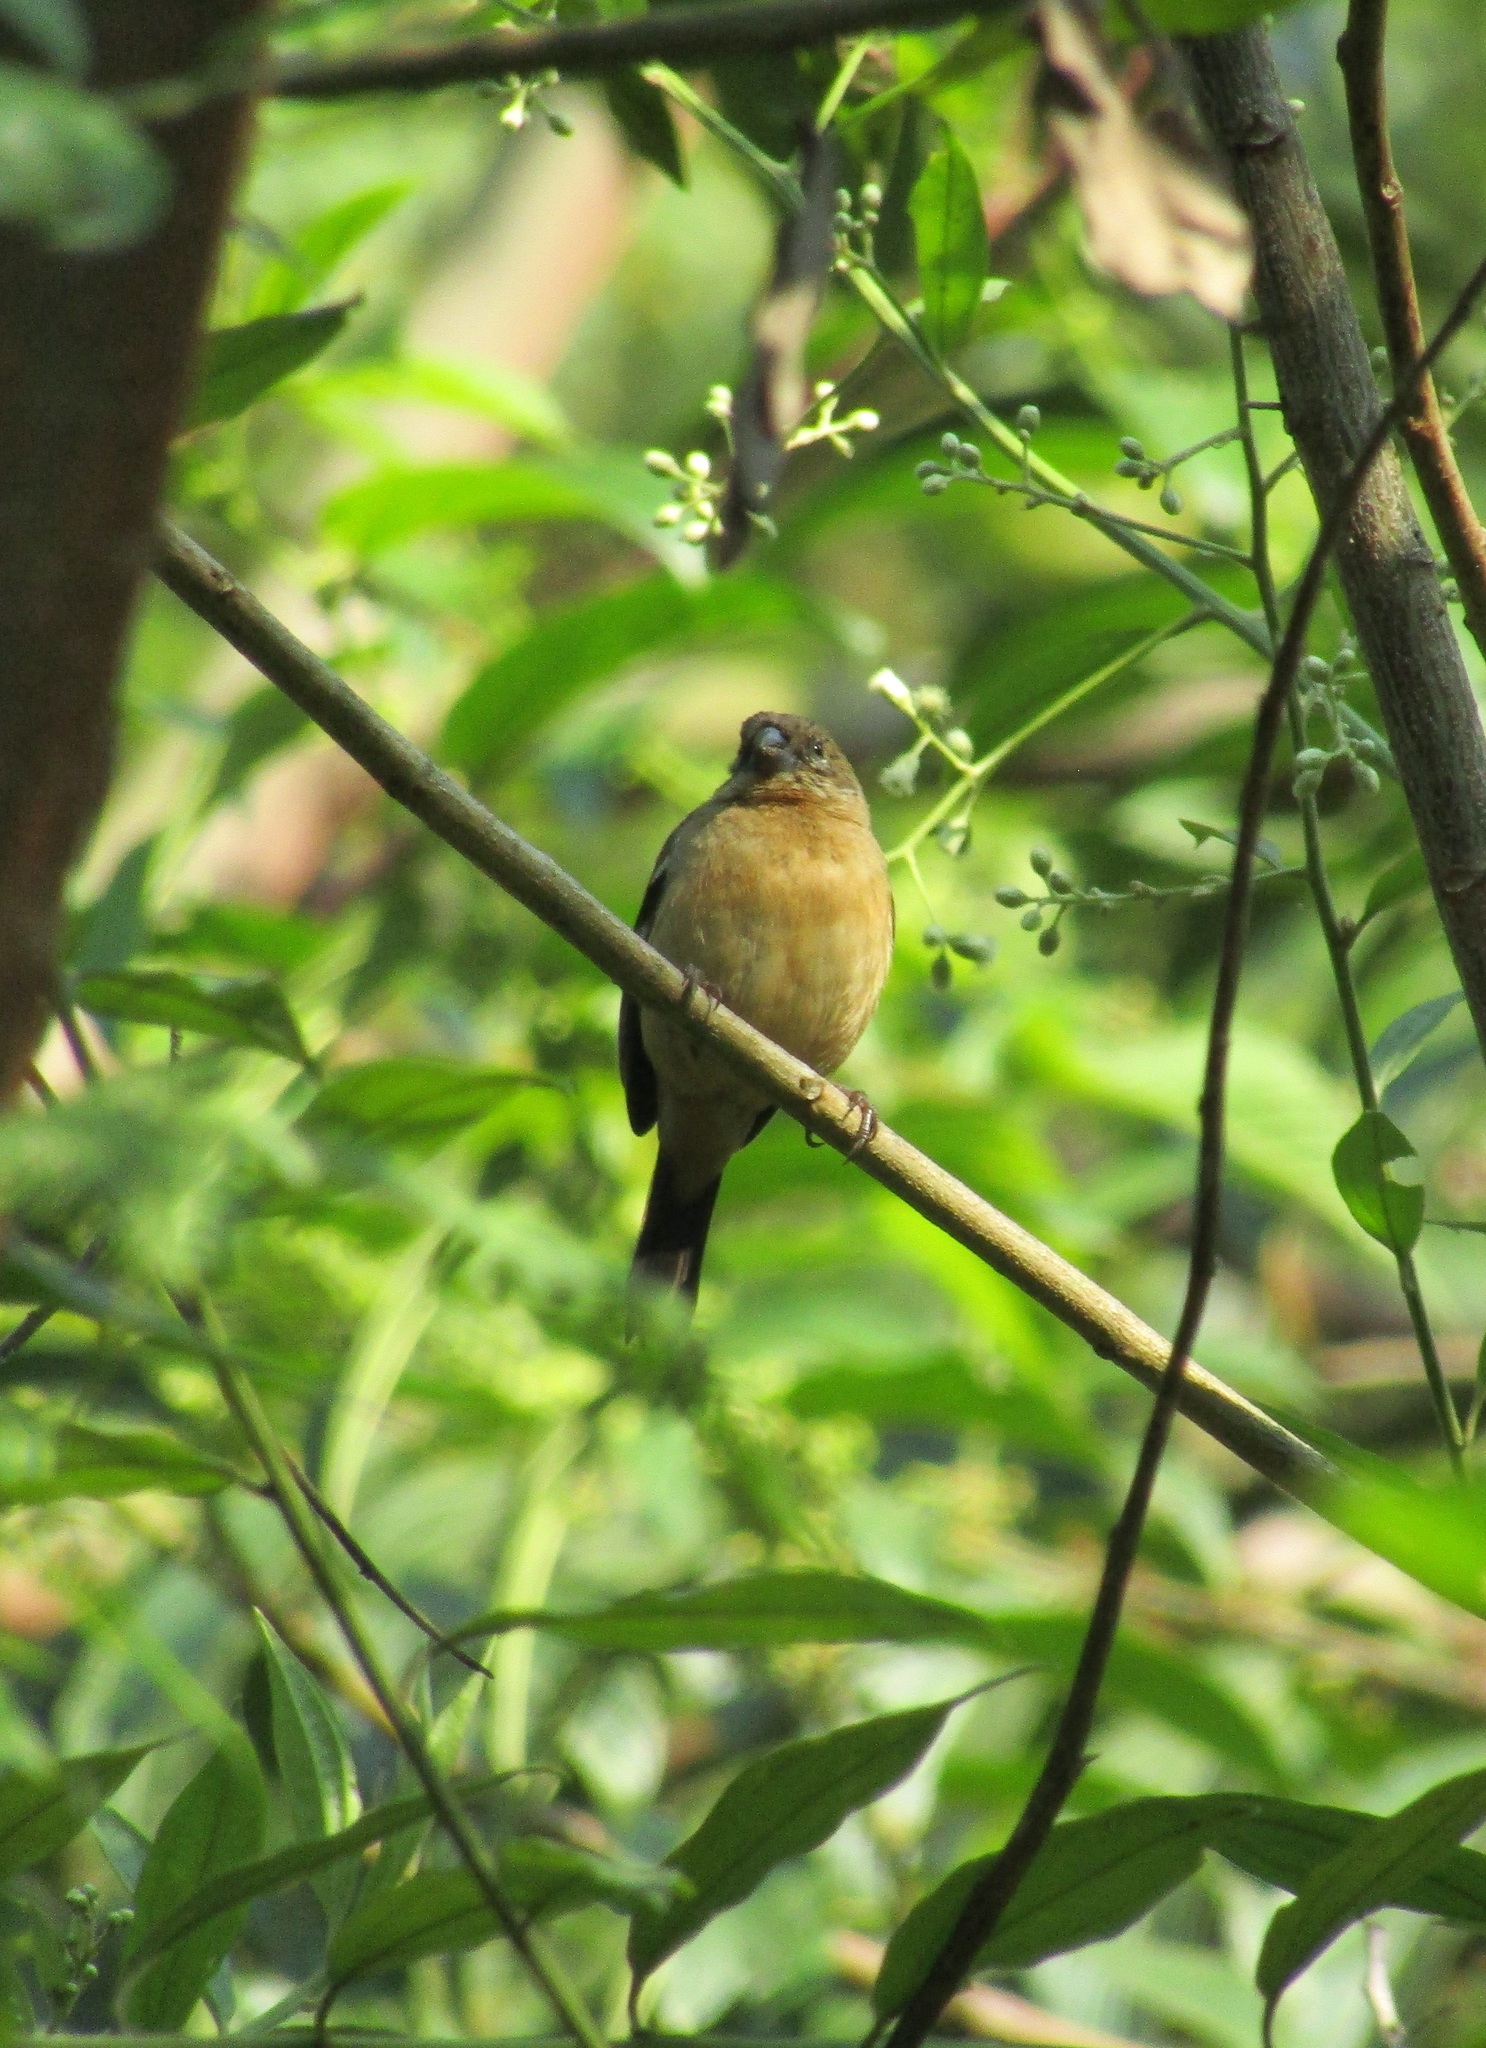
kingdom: Animalia
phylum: Chordata
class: Aves
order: Passeriformes
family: Thraupidae
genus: Sporophila
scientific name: Sporophila morelleti
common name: Morelet's seedeater
